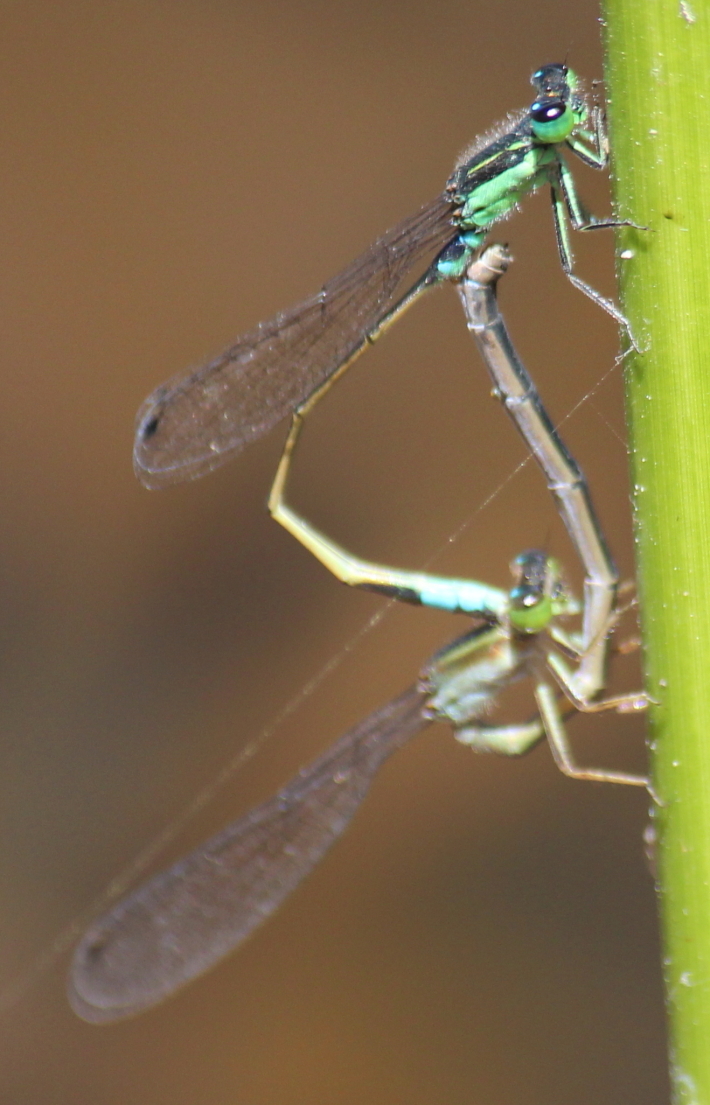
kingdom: Animalia
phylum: Arthropoda
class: Insecta
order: Odonata
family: Coenagrionidae
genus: Ischnura
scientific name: Ischnura senegalensis
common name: Tropical bluetail
